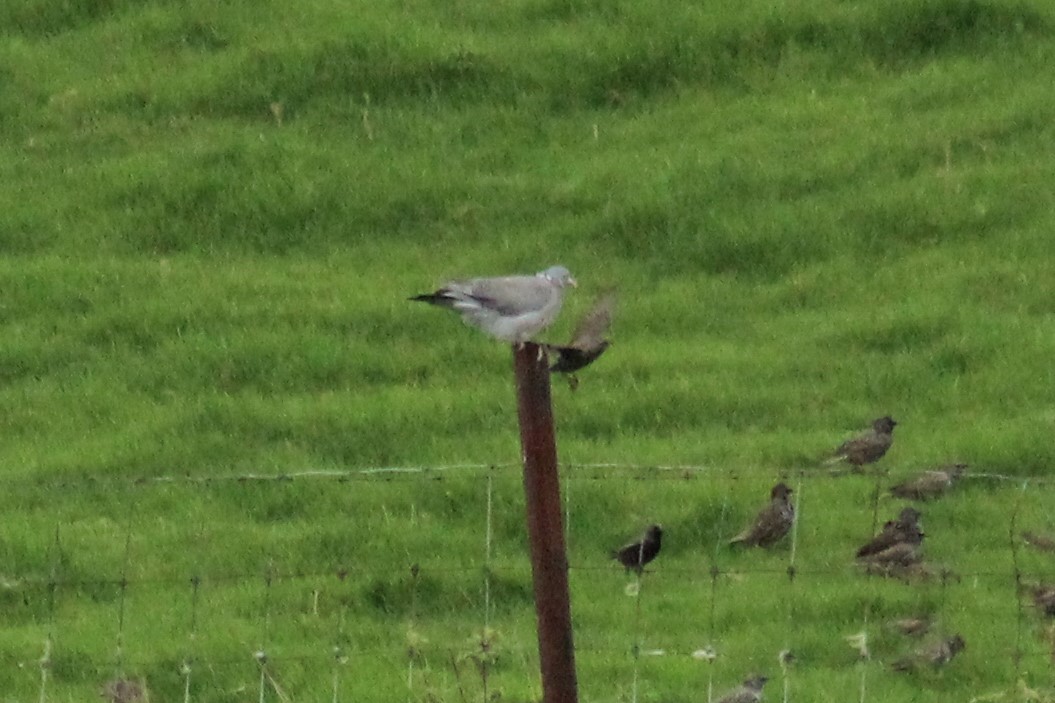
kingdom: Animalia
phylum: Chordata
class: Aves
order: Columbiformes
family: Columbidae
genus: Columba
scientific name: Columba palumbus
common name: Common wood pigeon
